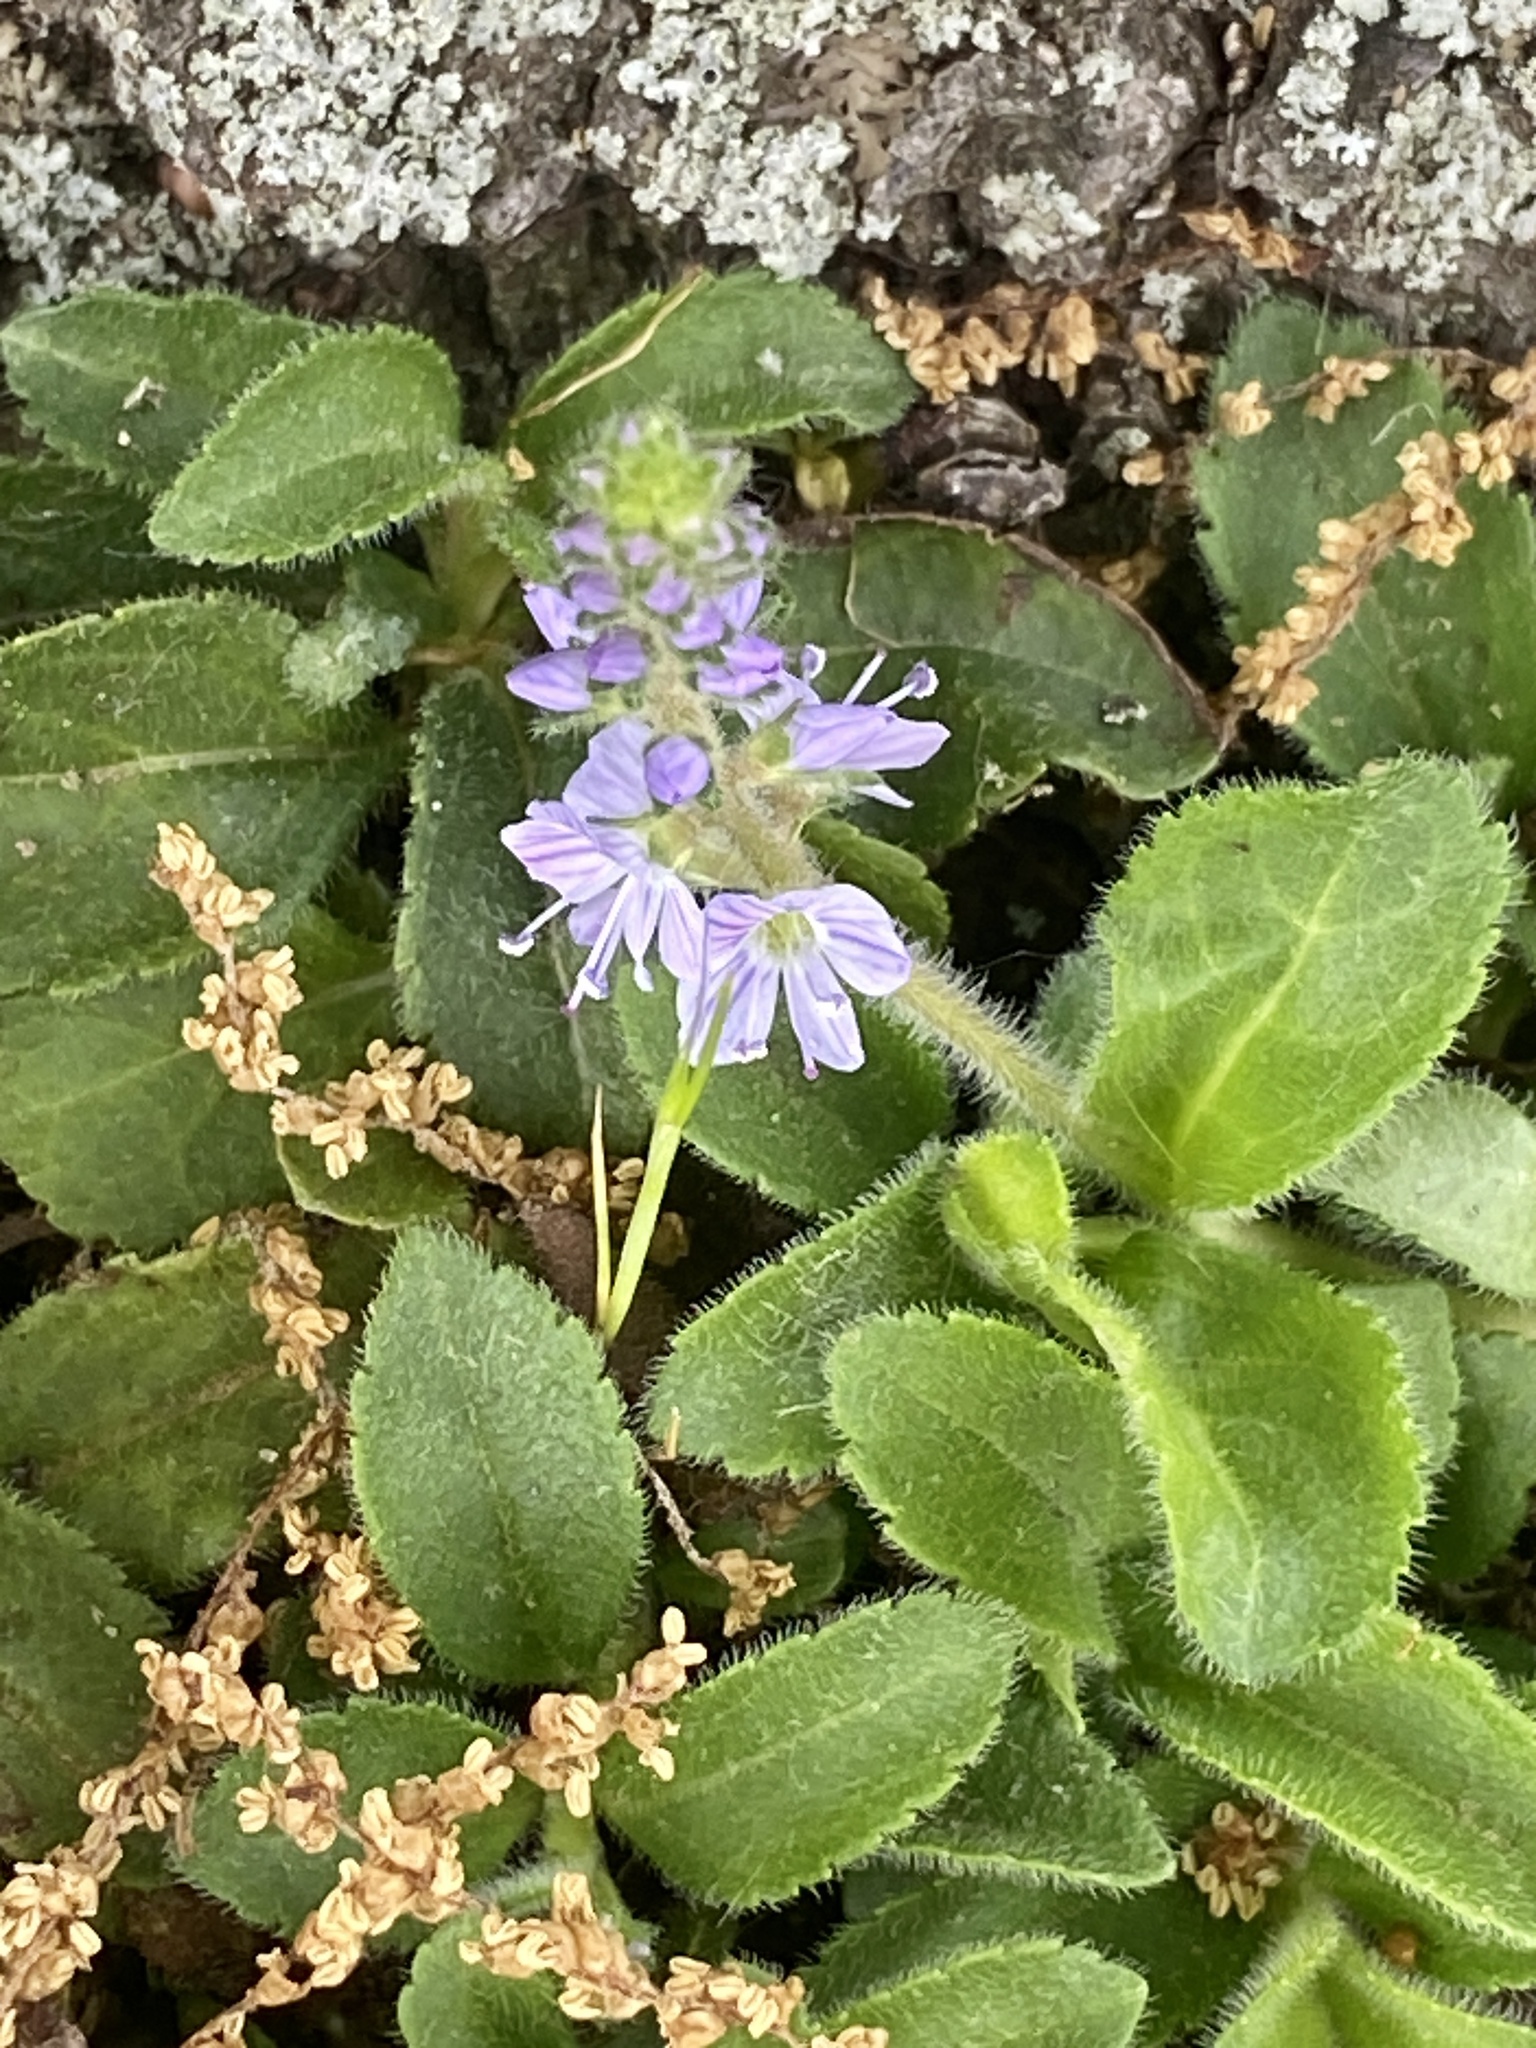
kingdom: Plantae
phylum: Tracheophyta
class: Magnoliopsida
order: Lamiales
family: Plantaginaceae
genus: Veronica
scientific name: Veronica officinalis
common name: Common speedwell
